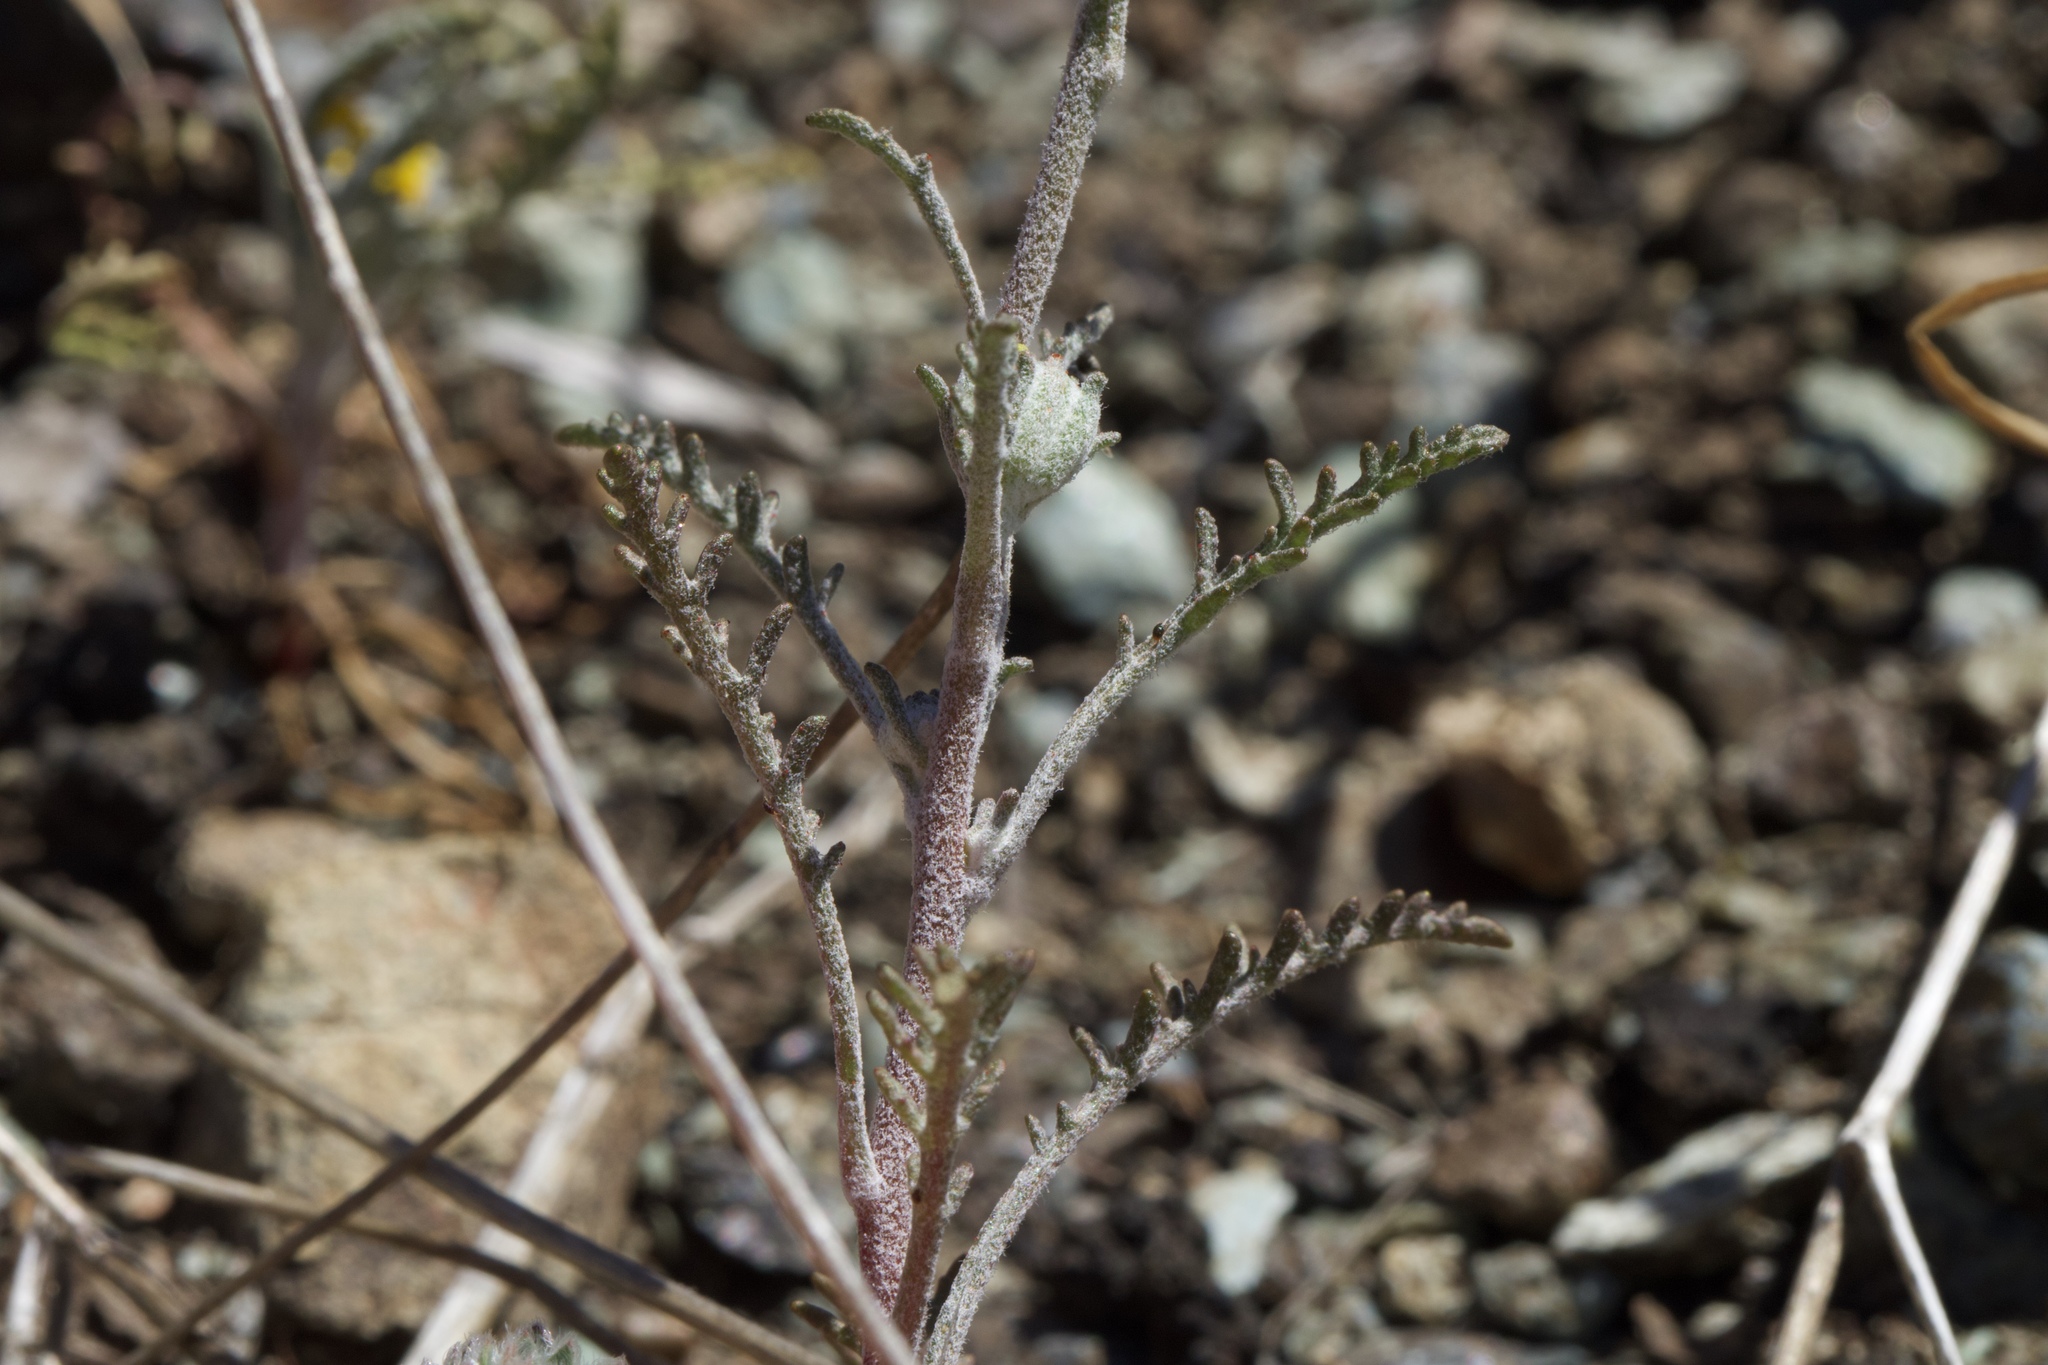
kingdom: Plantae
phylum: Tracheophyta
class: Magnoliopsida
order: Asterales
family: Asteraceae
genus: Chaenactis
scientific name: Chaenactis glabriuscula
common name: Yellow pincushion
